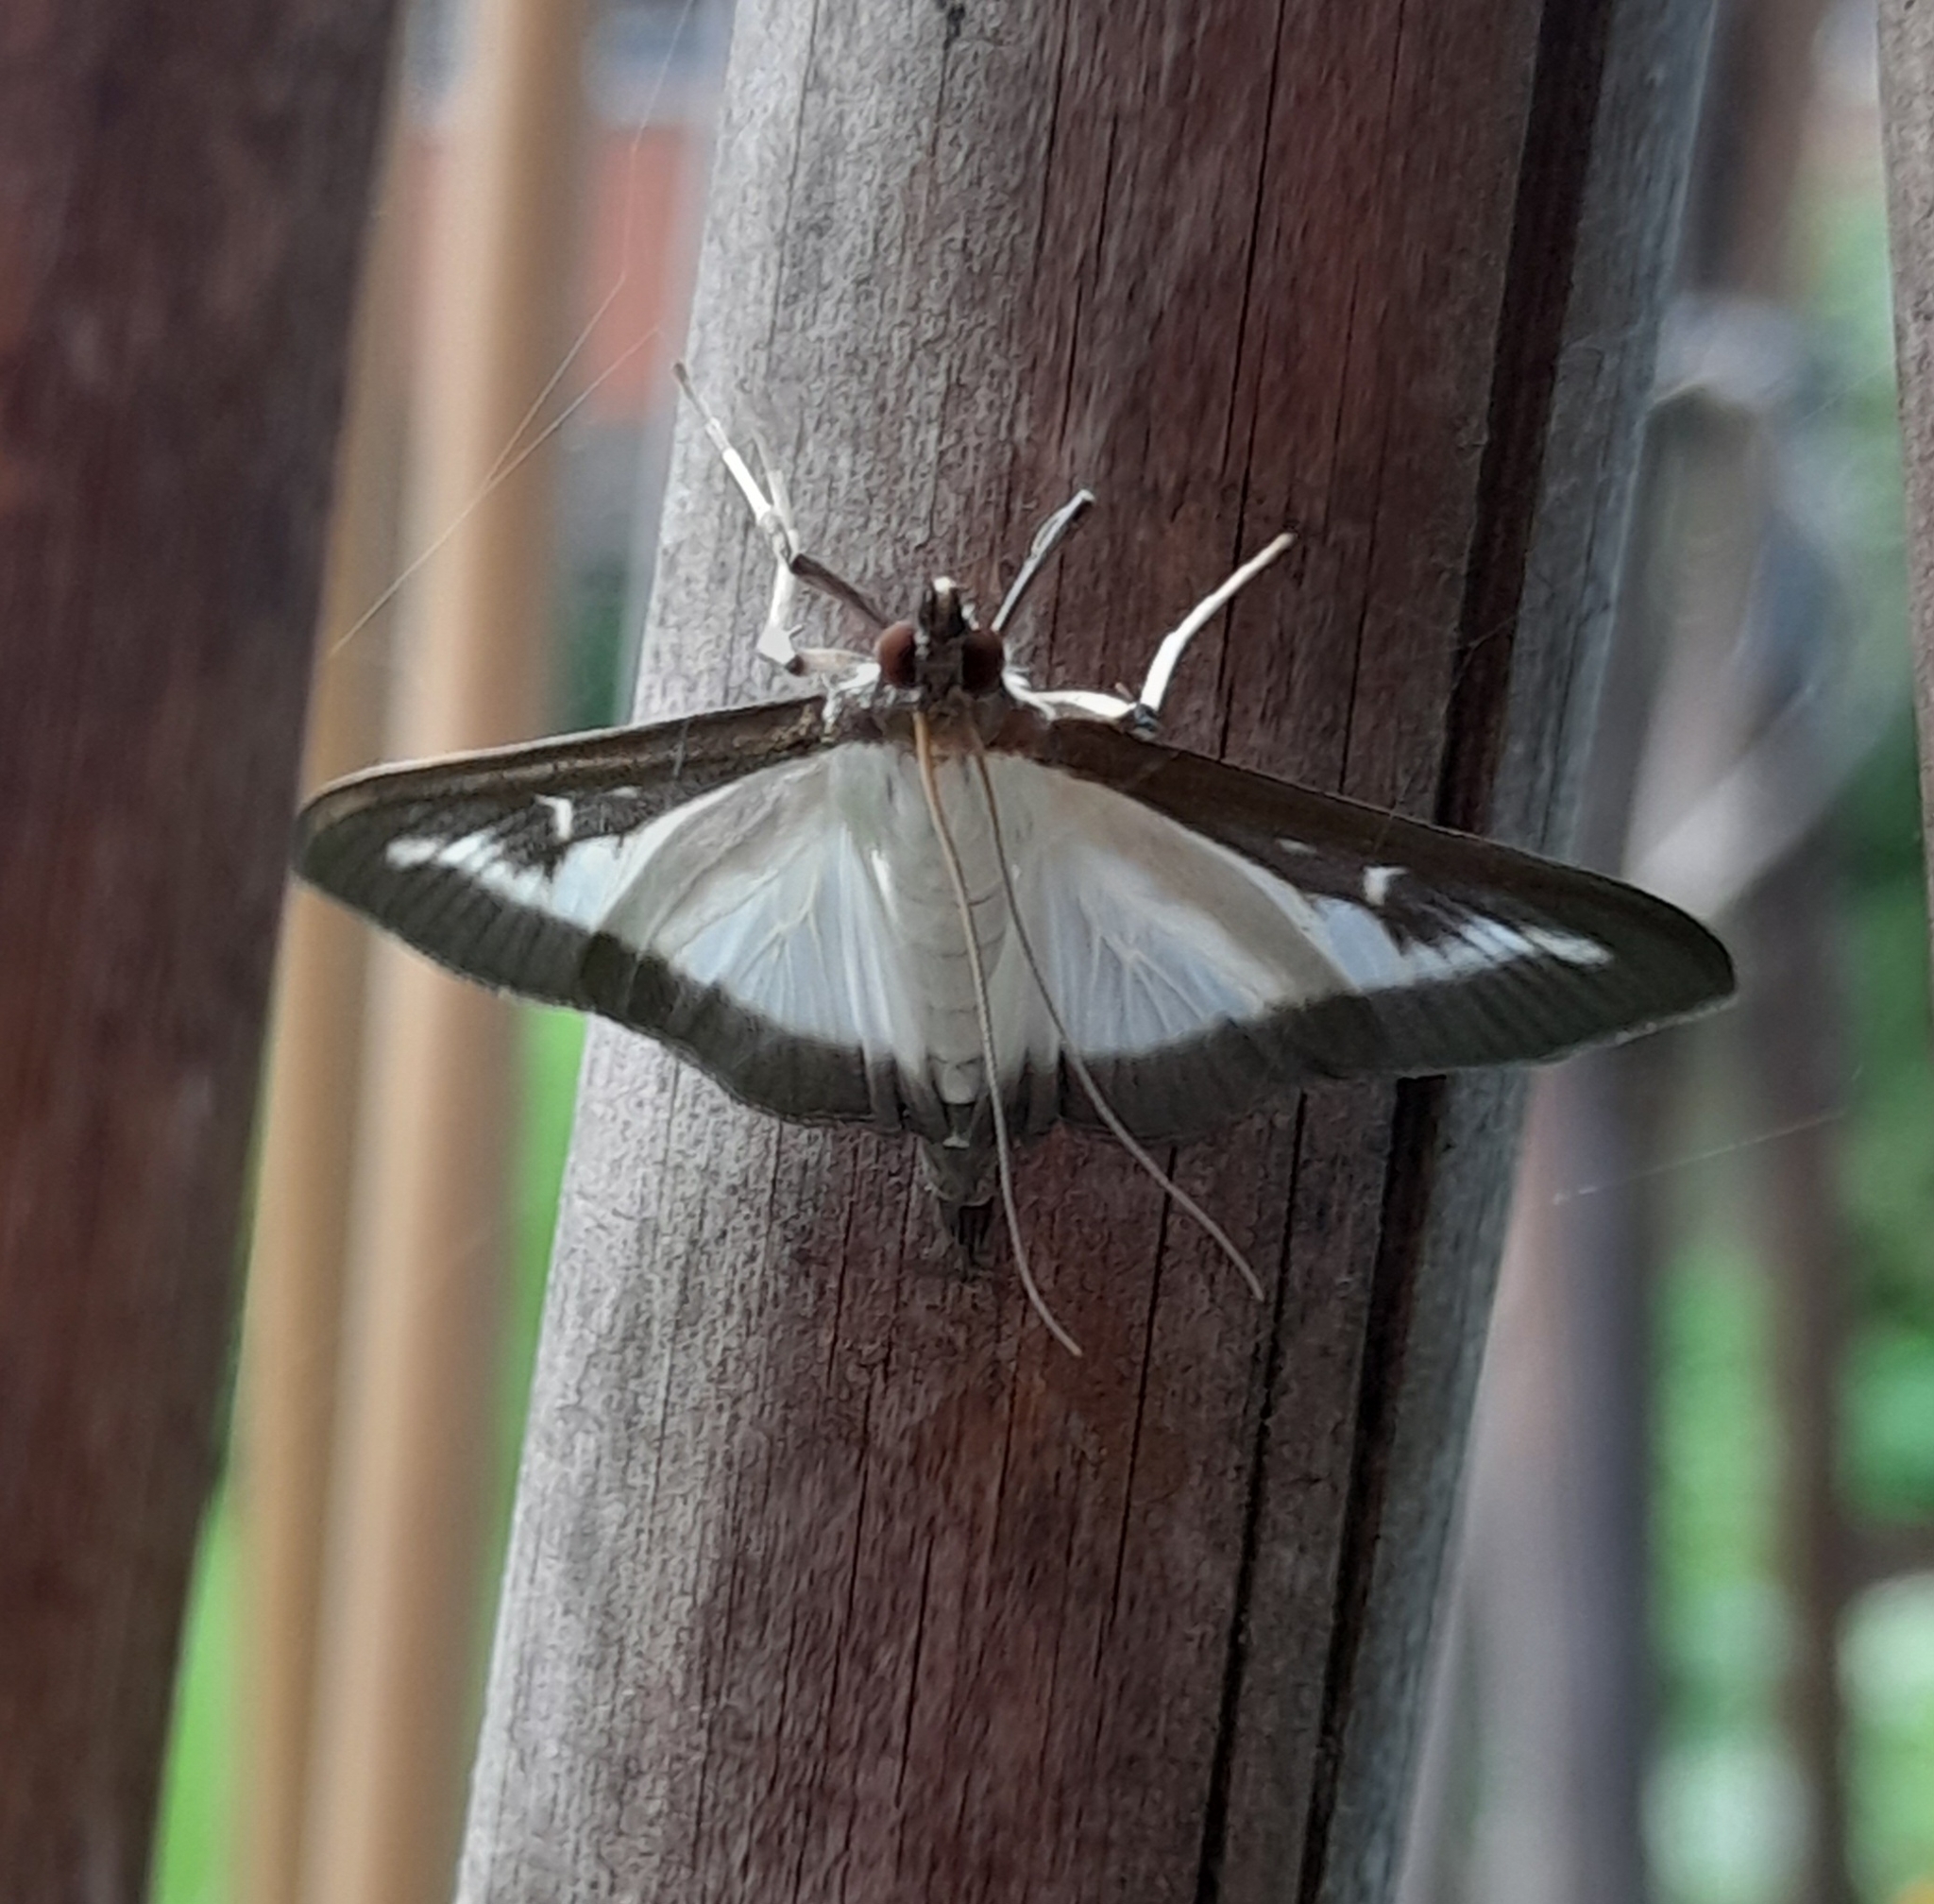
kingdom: Animalia
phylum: Arthropoda
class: Insecta
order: Lepidoptera
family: Crambidae
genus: Cydalima
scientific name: Cydalima perspectalis
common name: Box tree moth
